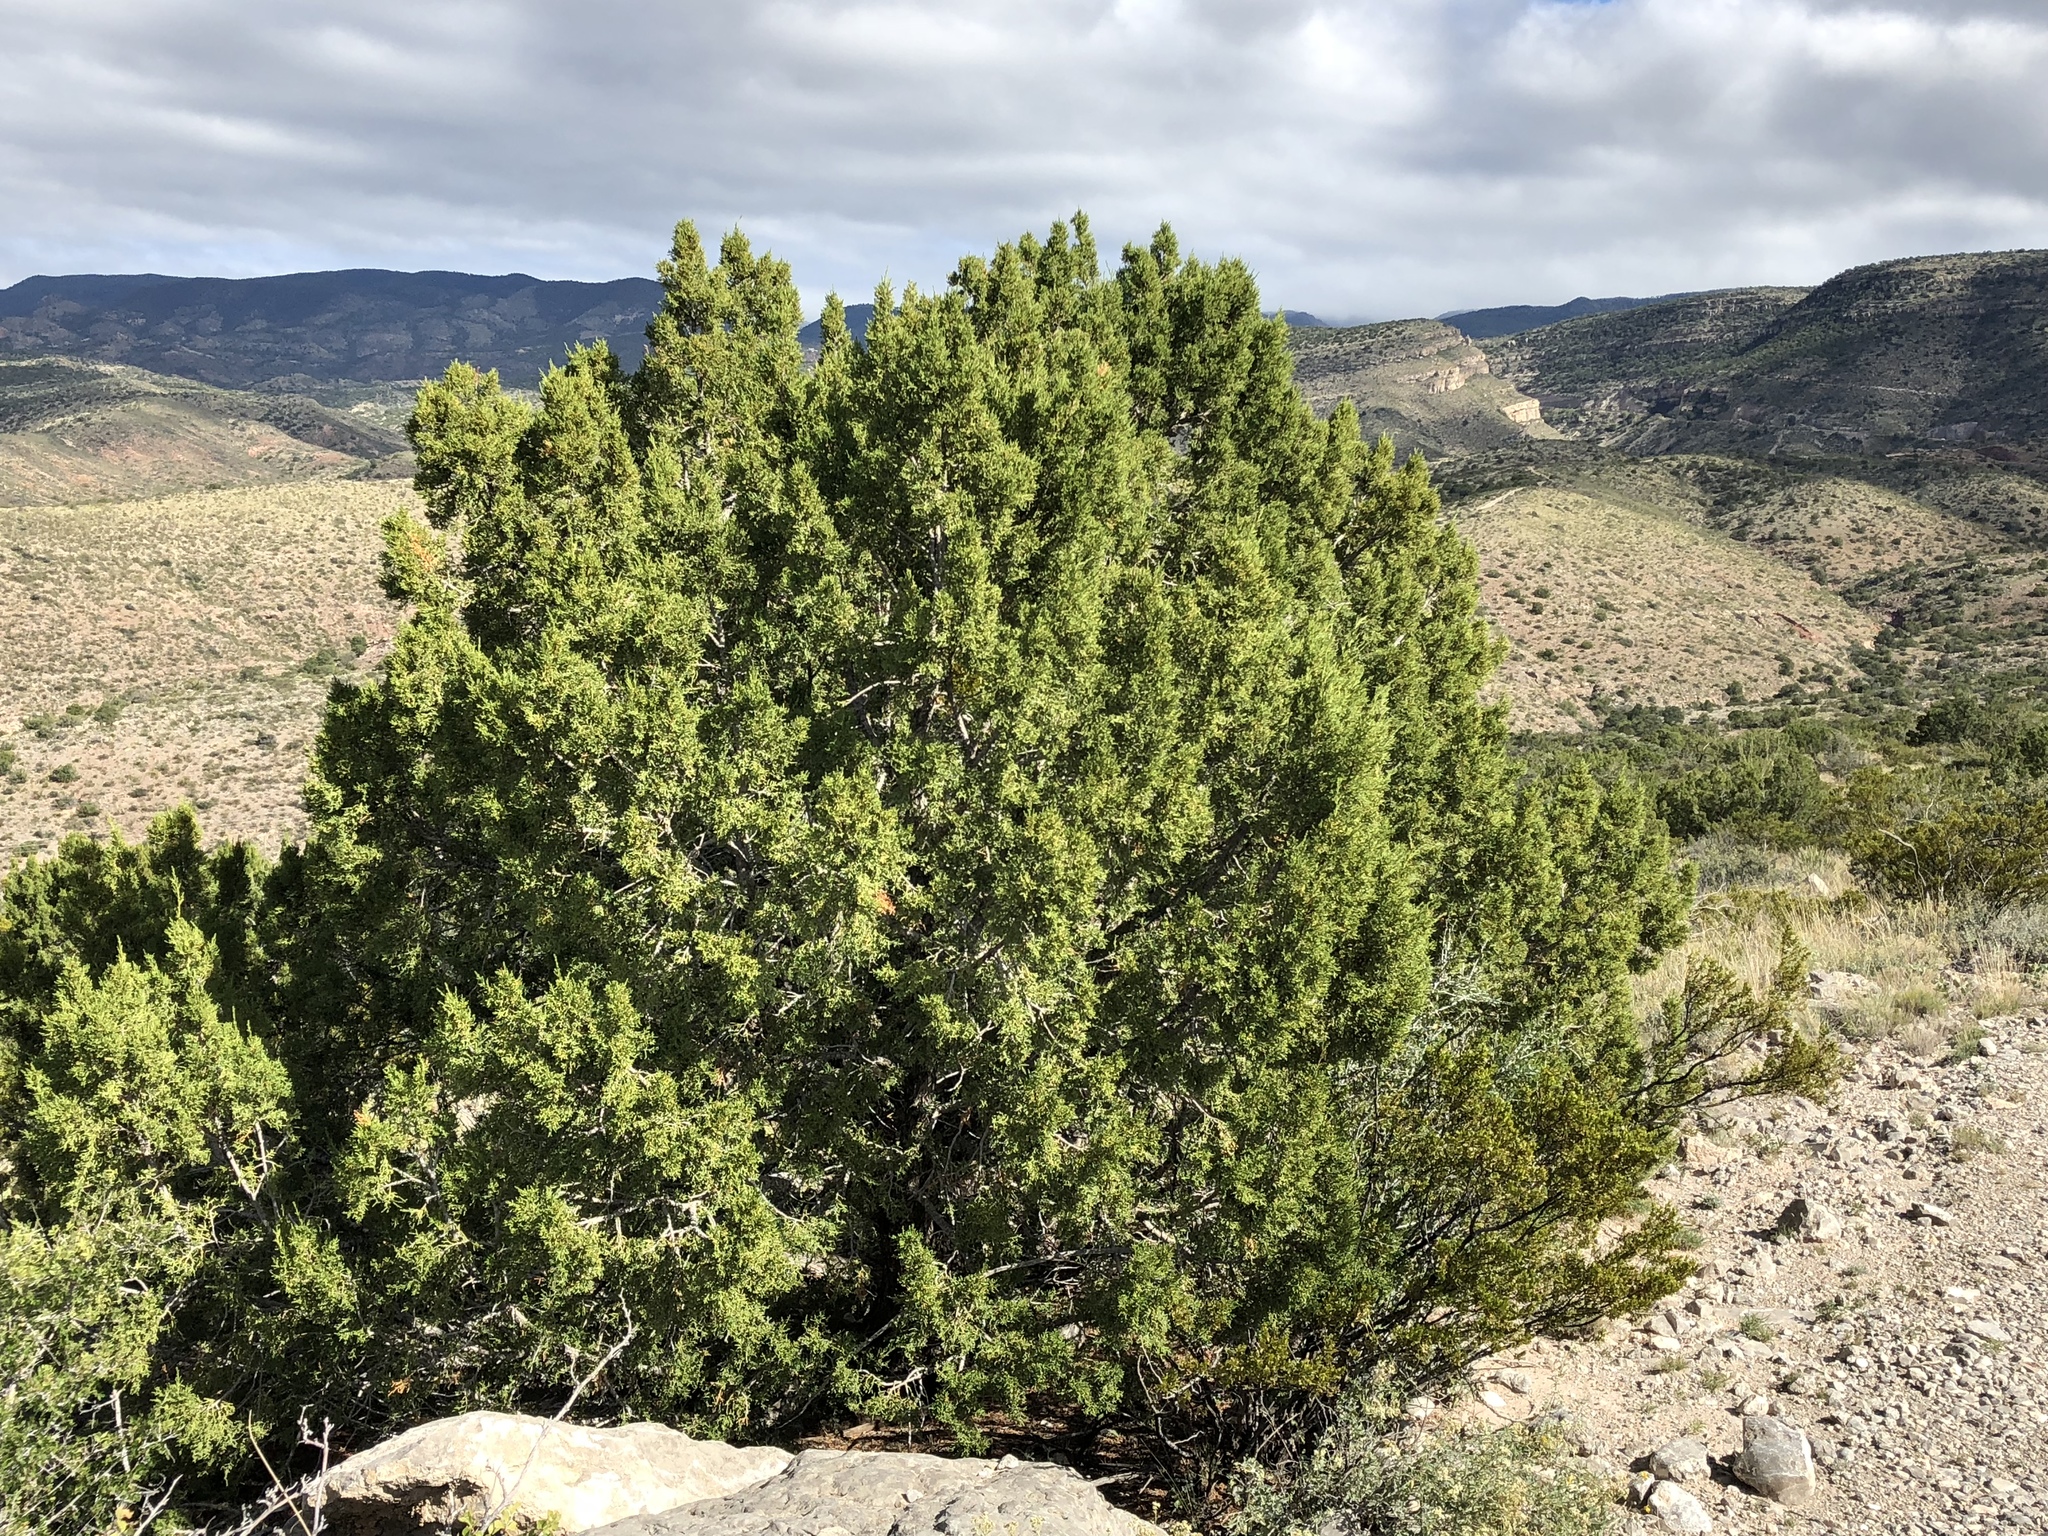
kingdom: Plantae
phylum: Tracheophyta
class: Pinopsida
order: Pinales
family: Cupressaceae
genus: Juniperus
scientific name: Juniperus monosperma
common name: One-seed juniper
